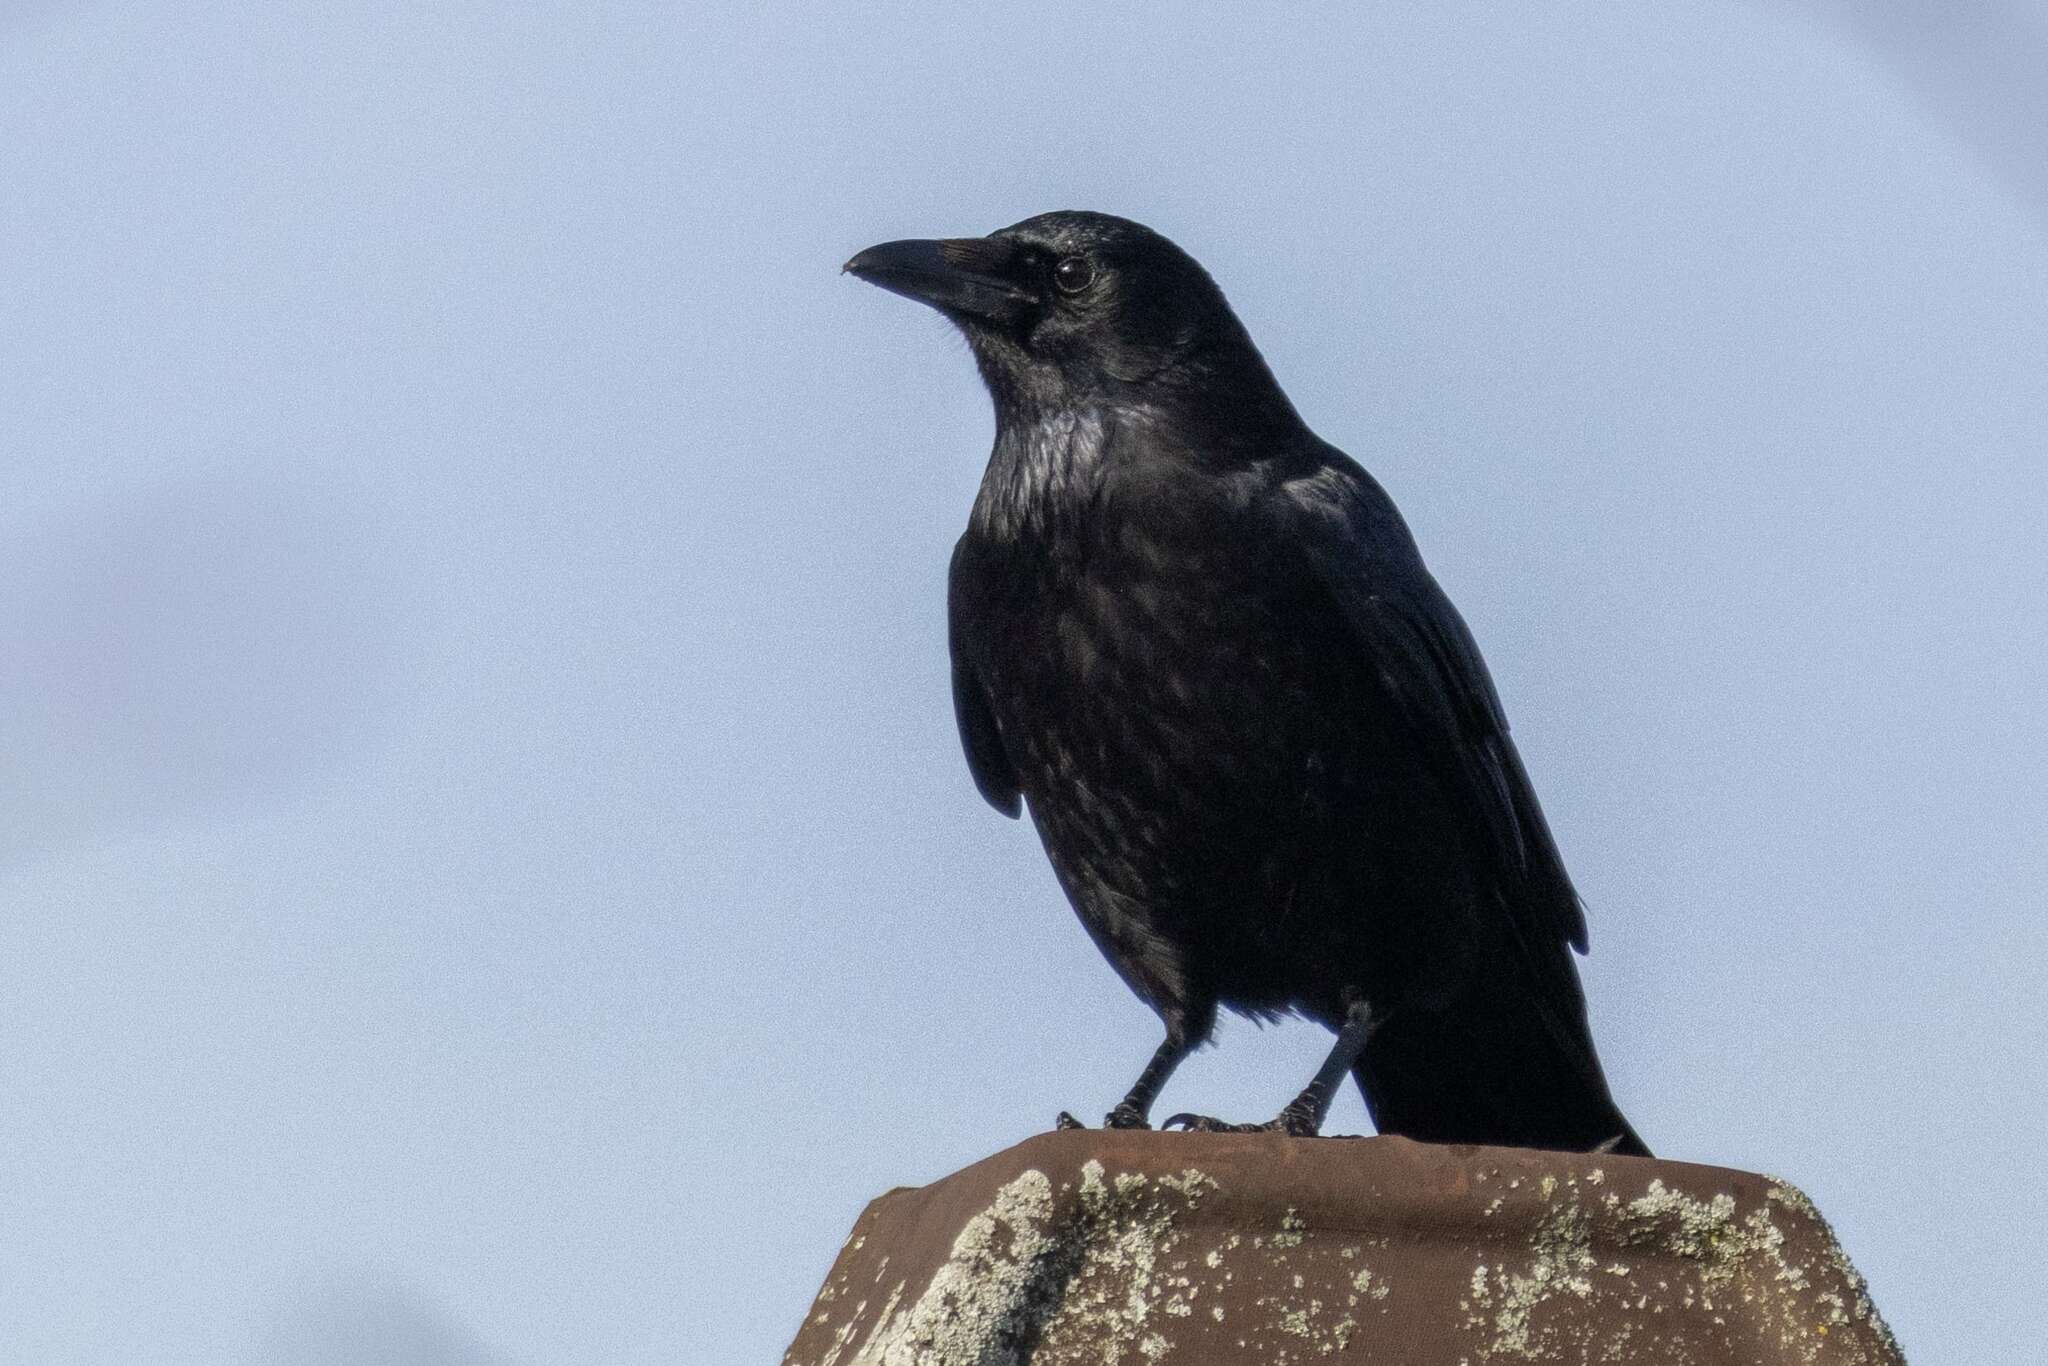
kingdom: Animalia
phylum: Chordata
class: Aves
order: Passeriformes
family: Corvidae
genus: Corvus
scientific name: Corvus corone
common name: Carrion crow
